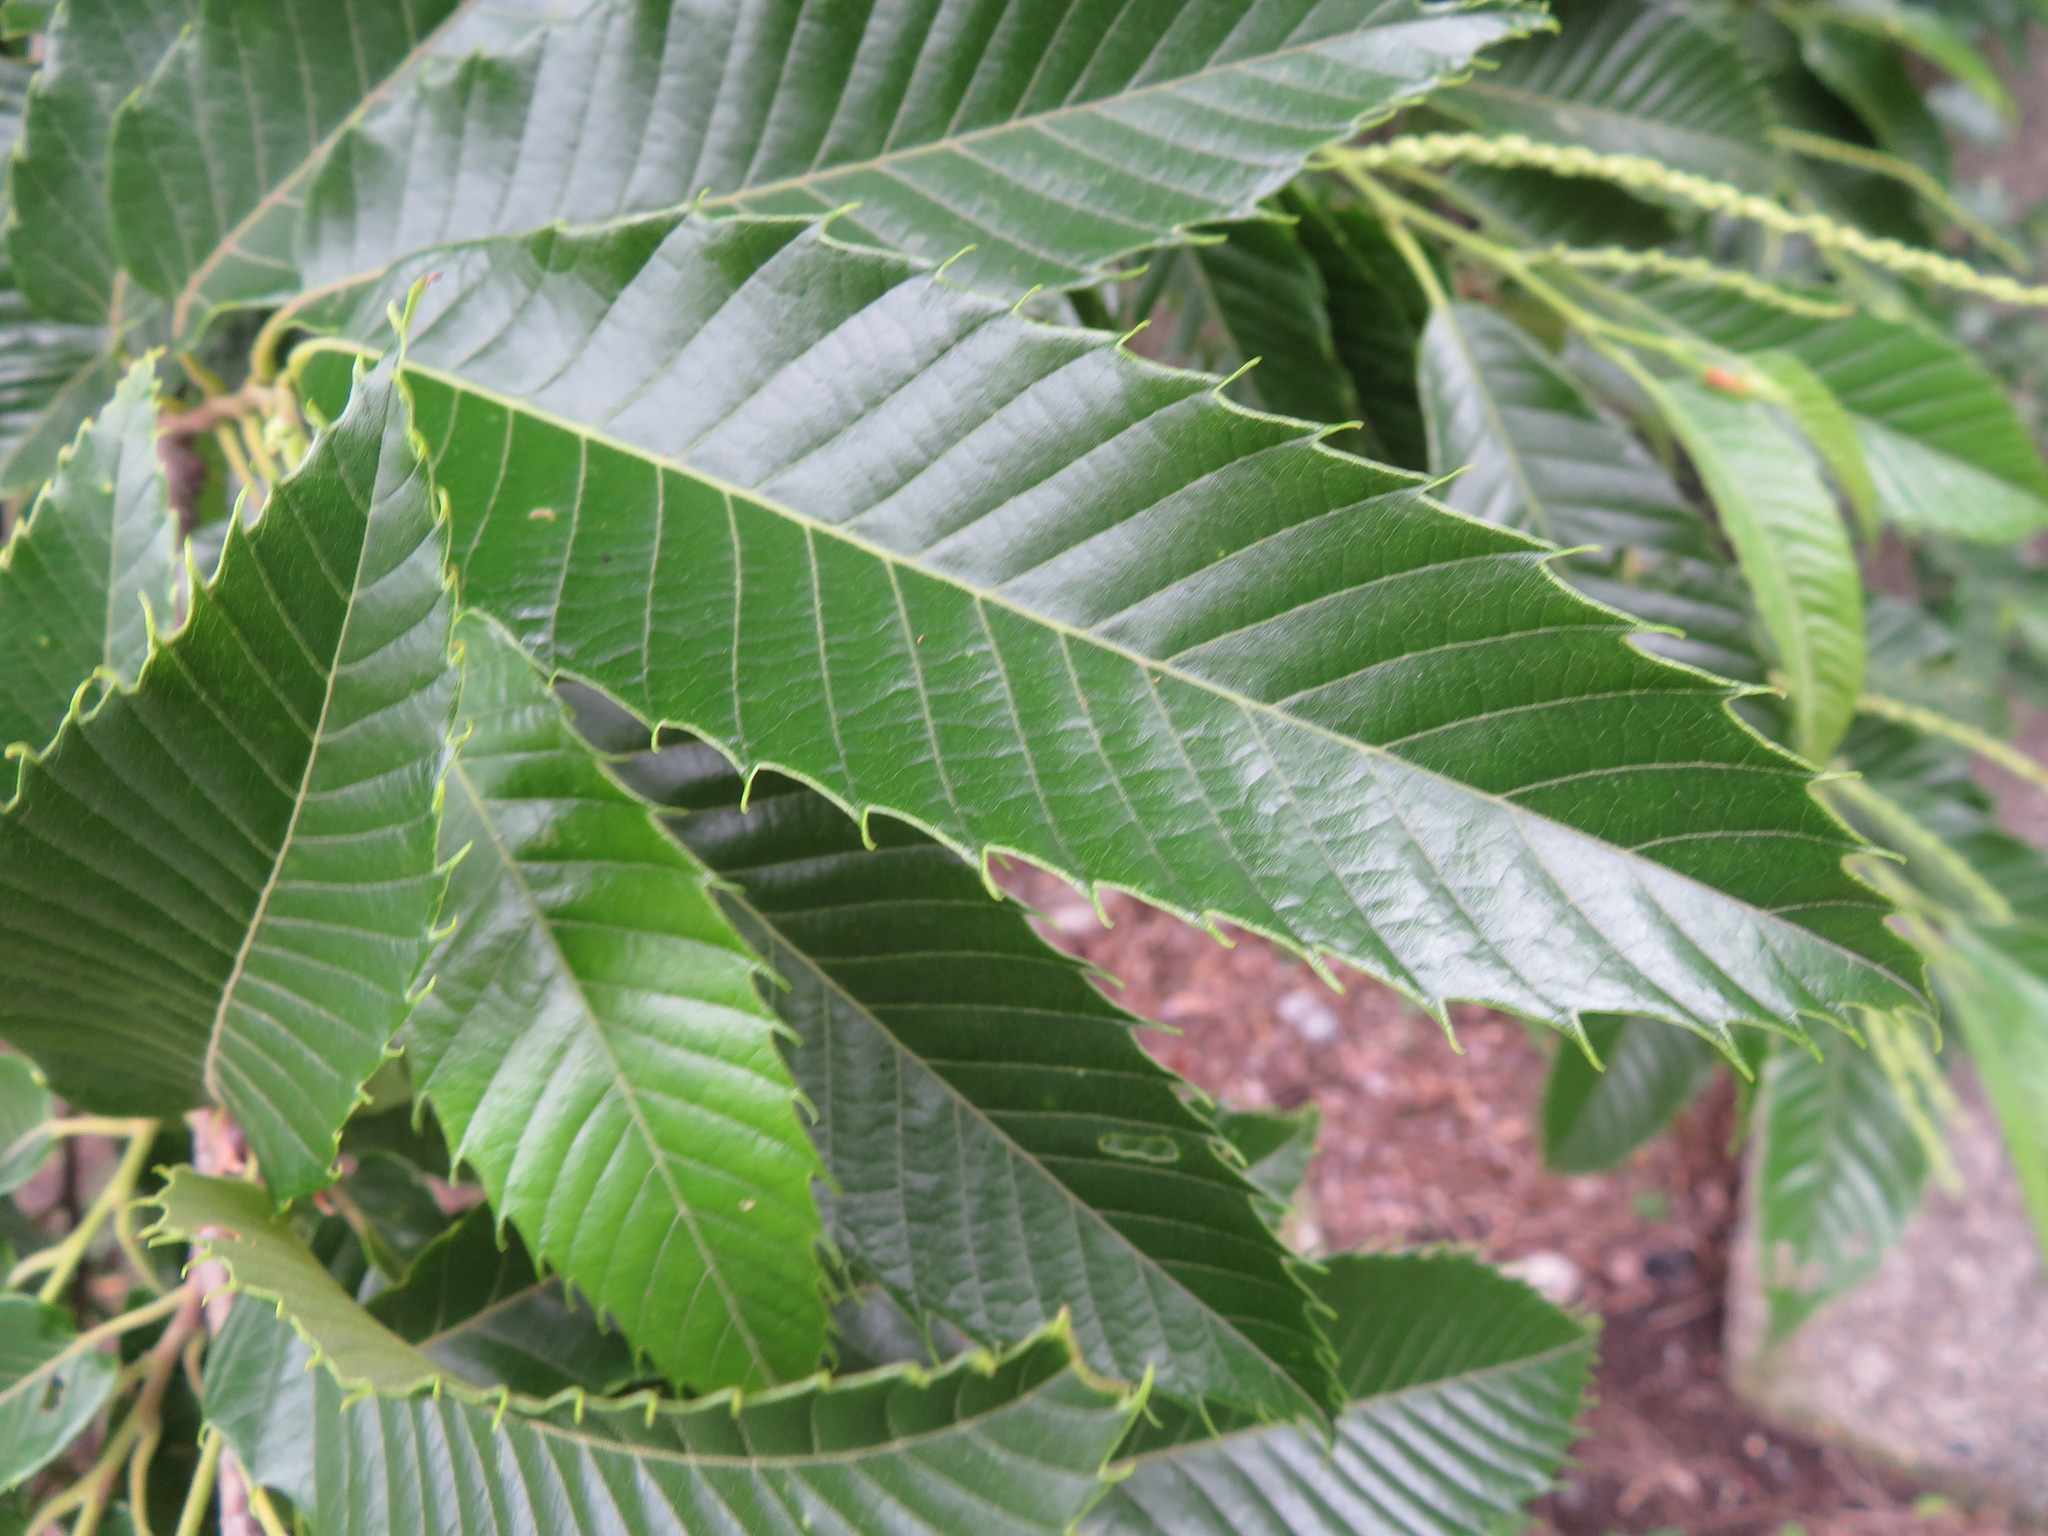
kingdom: Plantae
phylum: Tracheophyta
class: Magnoliopsida
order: Fagales
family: Fagaceae
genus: Castanea
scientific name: Castanea crenata
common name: Japanese chestnut
